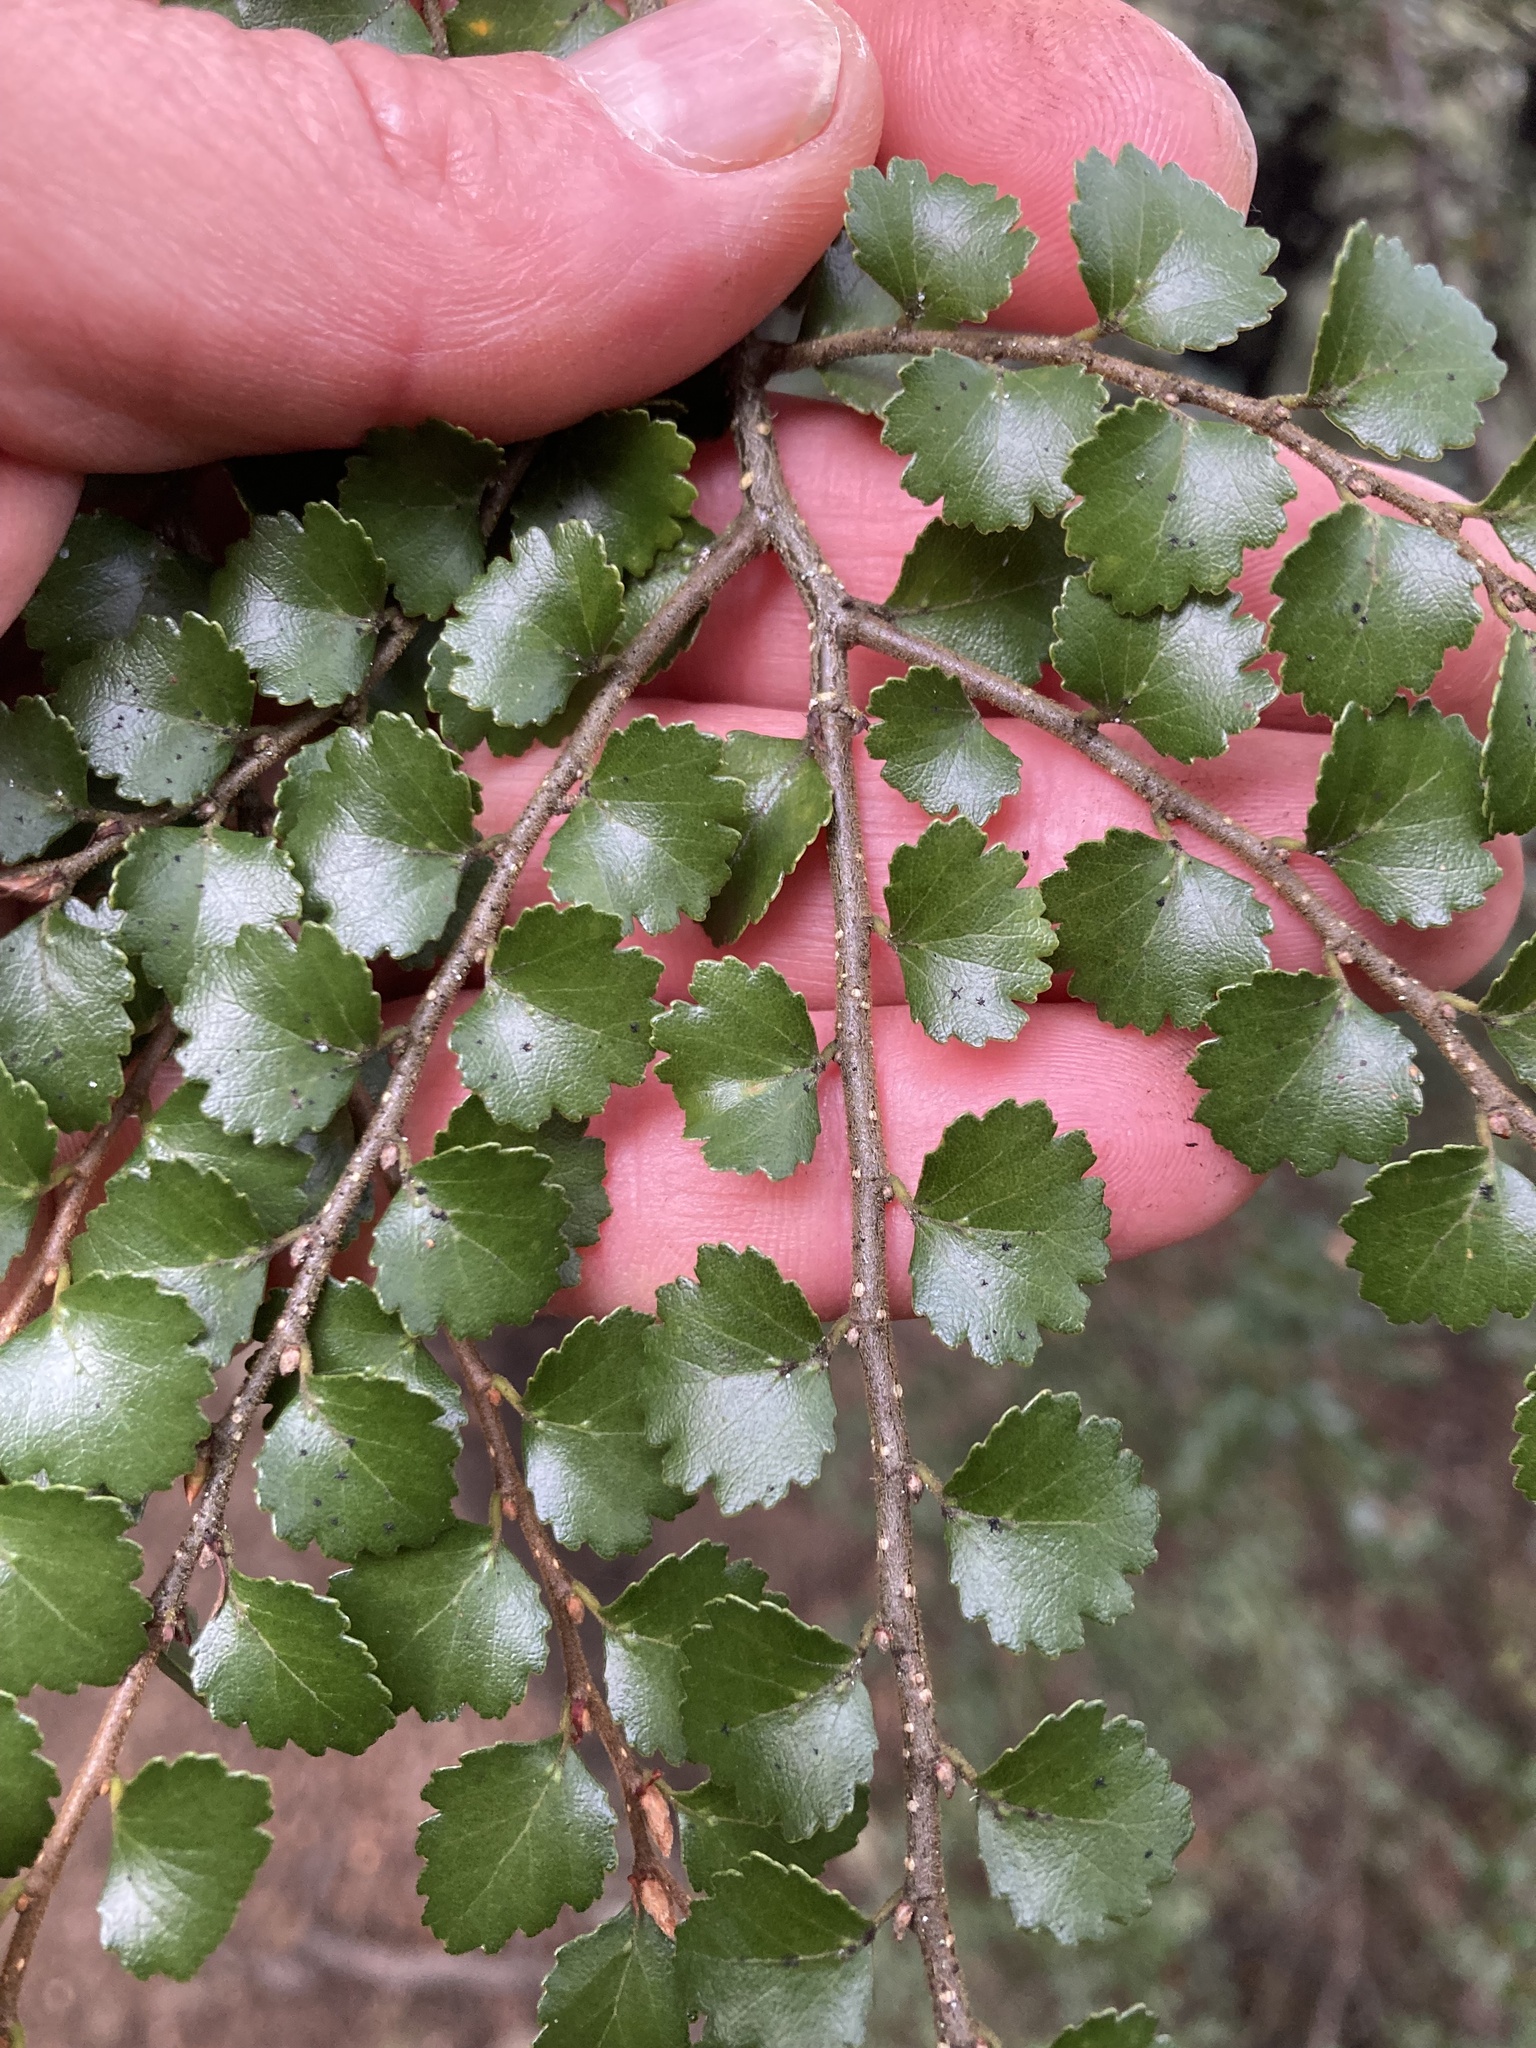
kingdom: Plantae
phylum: Tracheophyta
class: Magnoliopsida
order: Fagales
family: Nothofagaceae
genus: Nothofagus
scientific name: Nothofagus menziesii
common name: Silver beech
